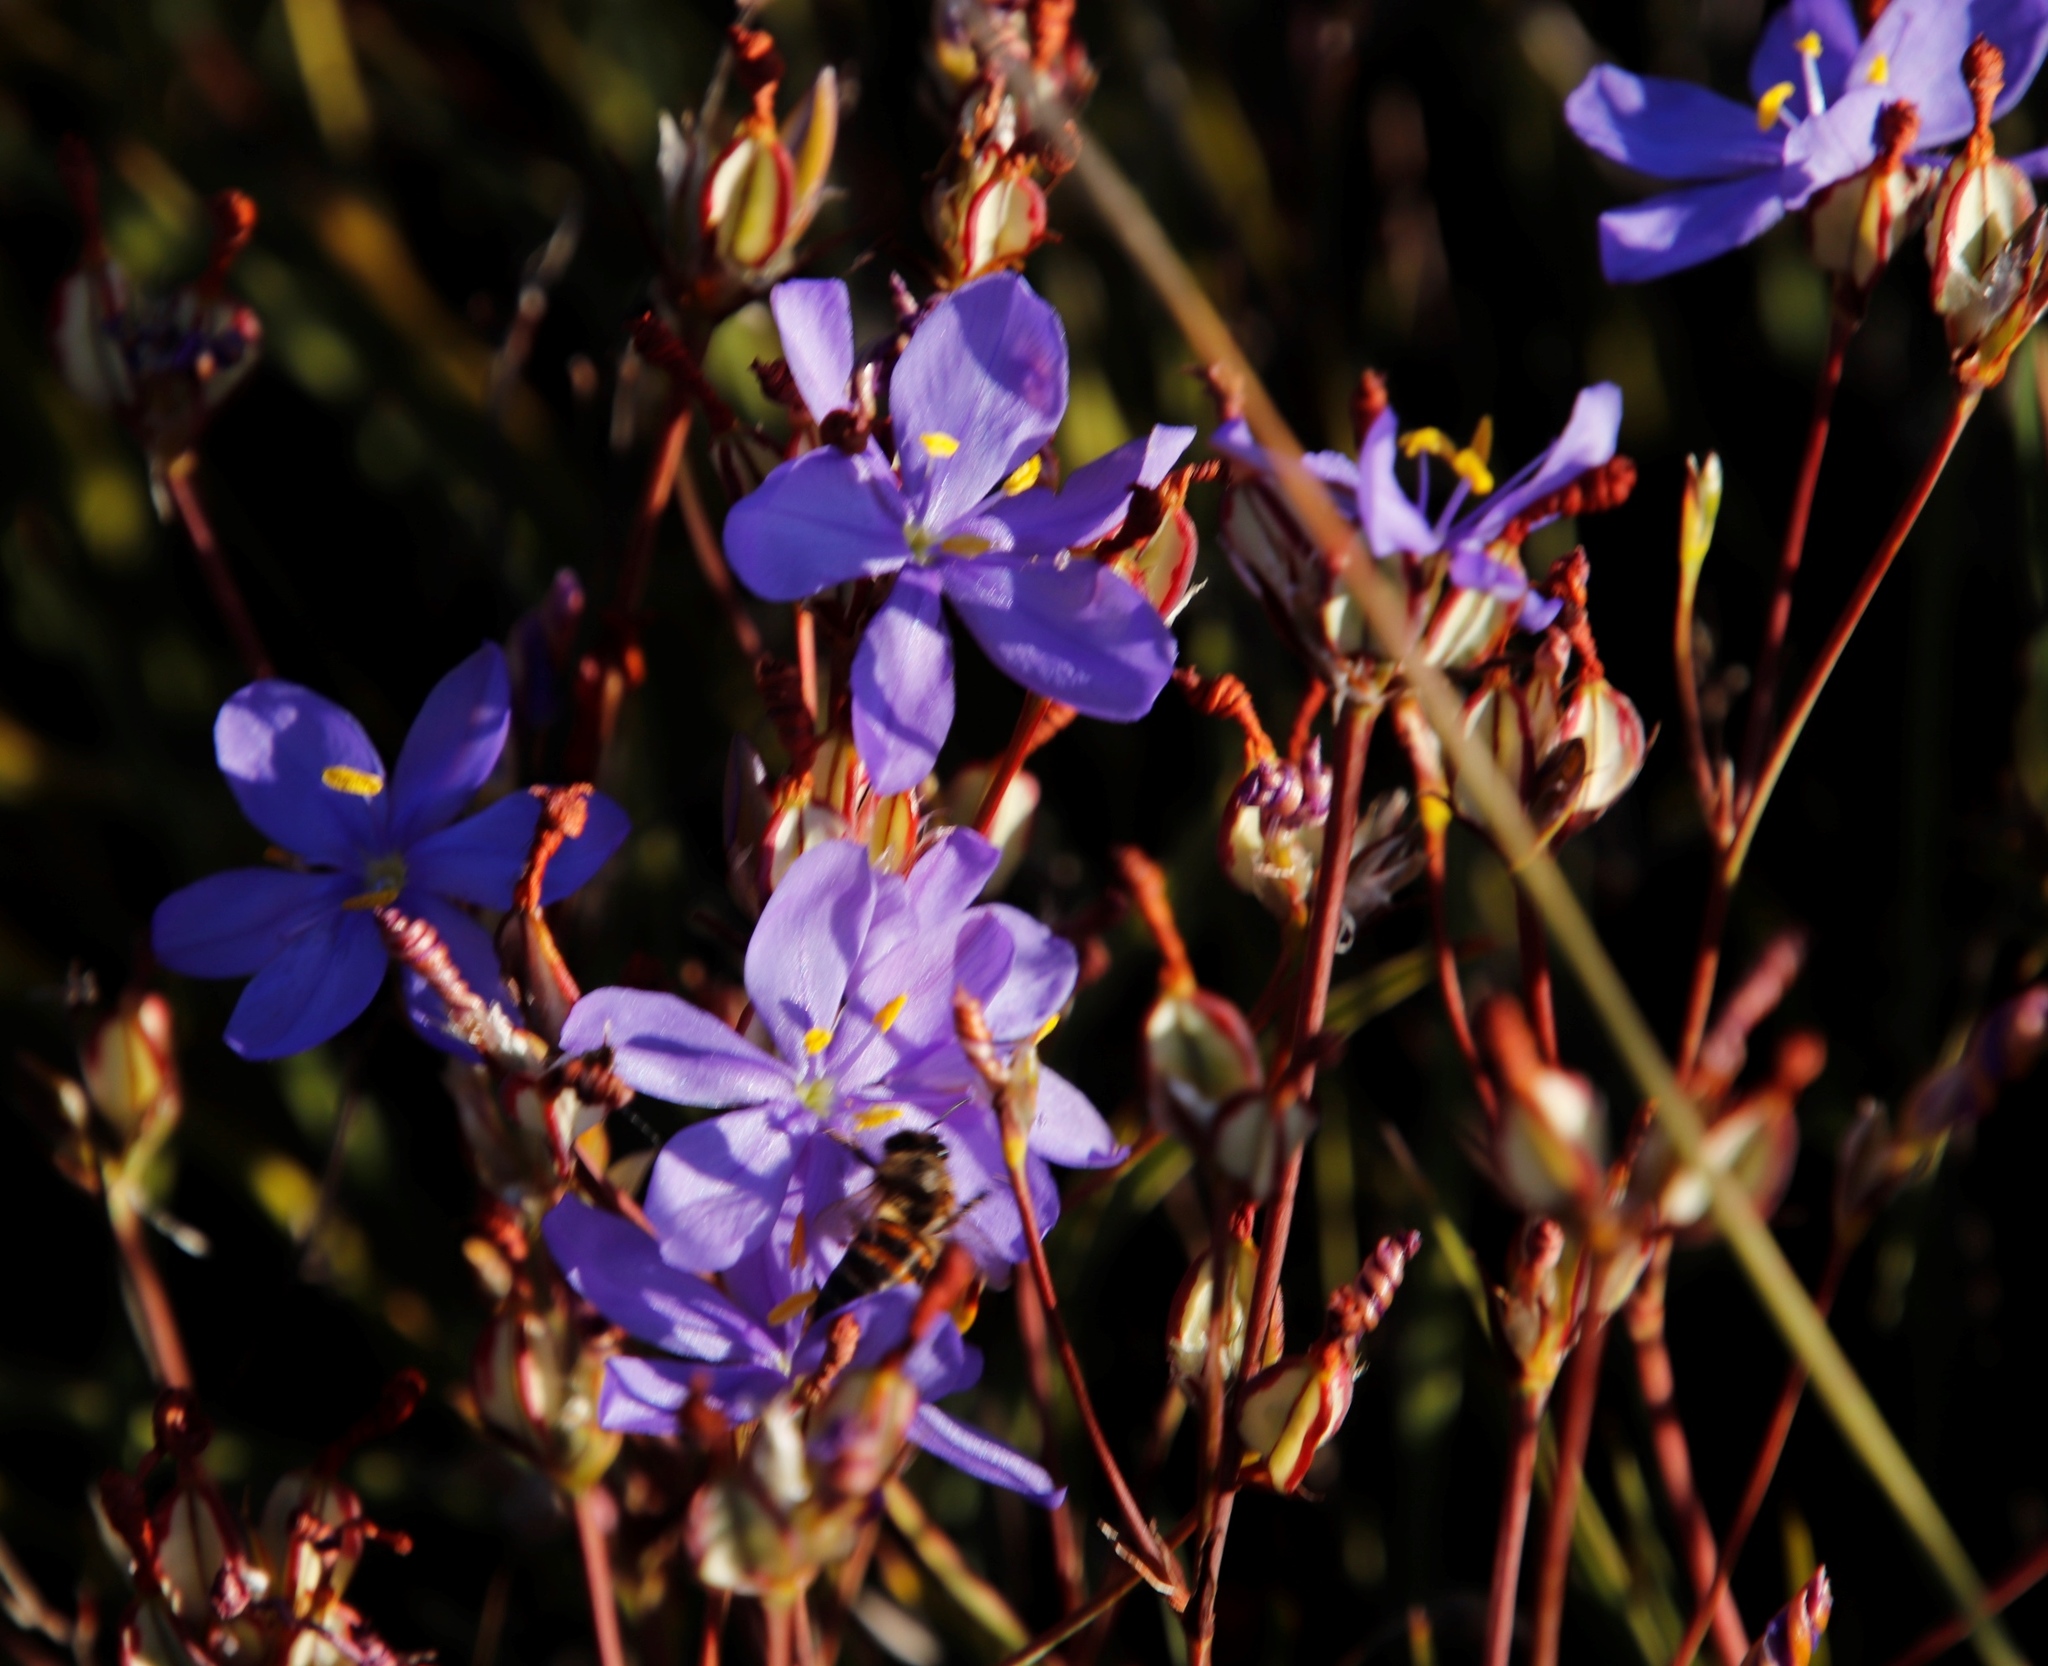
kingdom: Animalia
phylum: Arthropoda
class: Insecta
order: Hymenoptera
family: Apidae
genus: Apis
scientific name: Apis mellifera
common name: Honey bee
